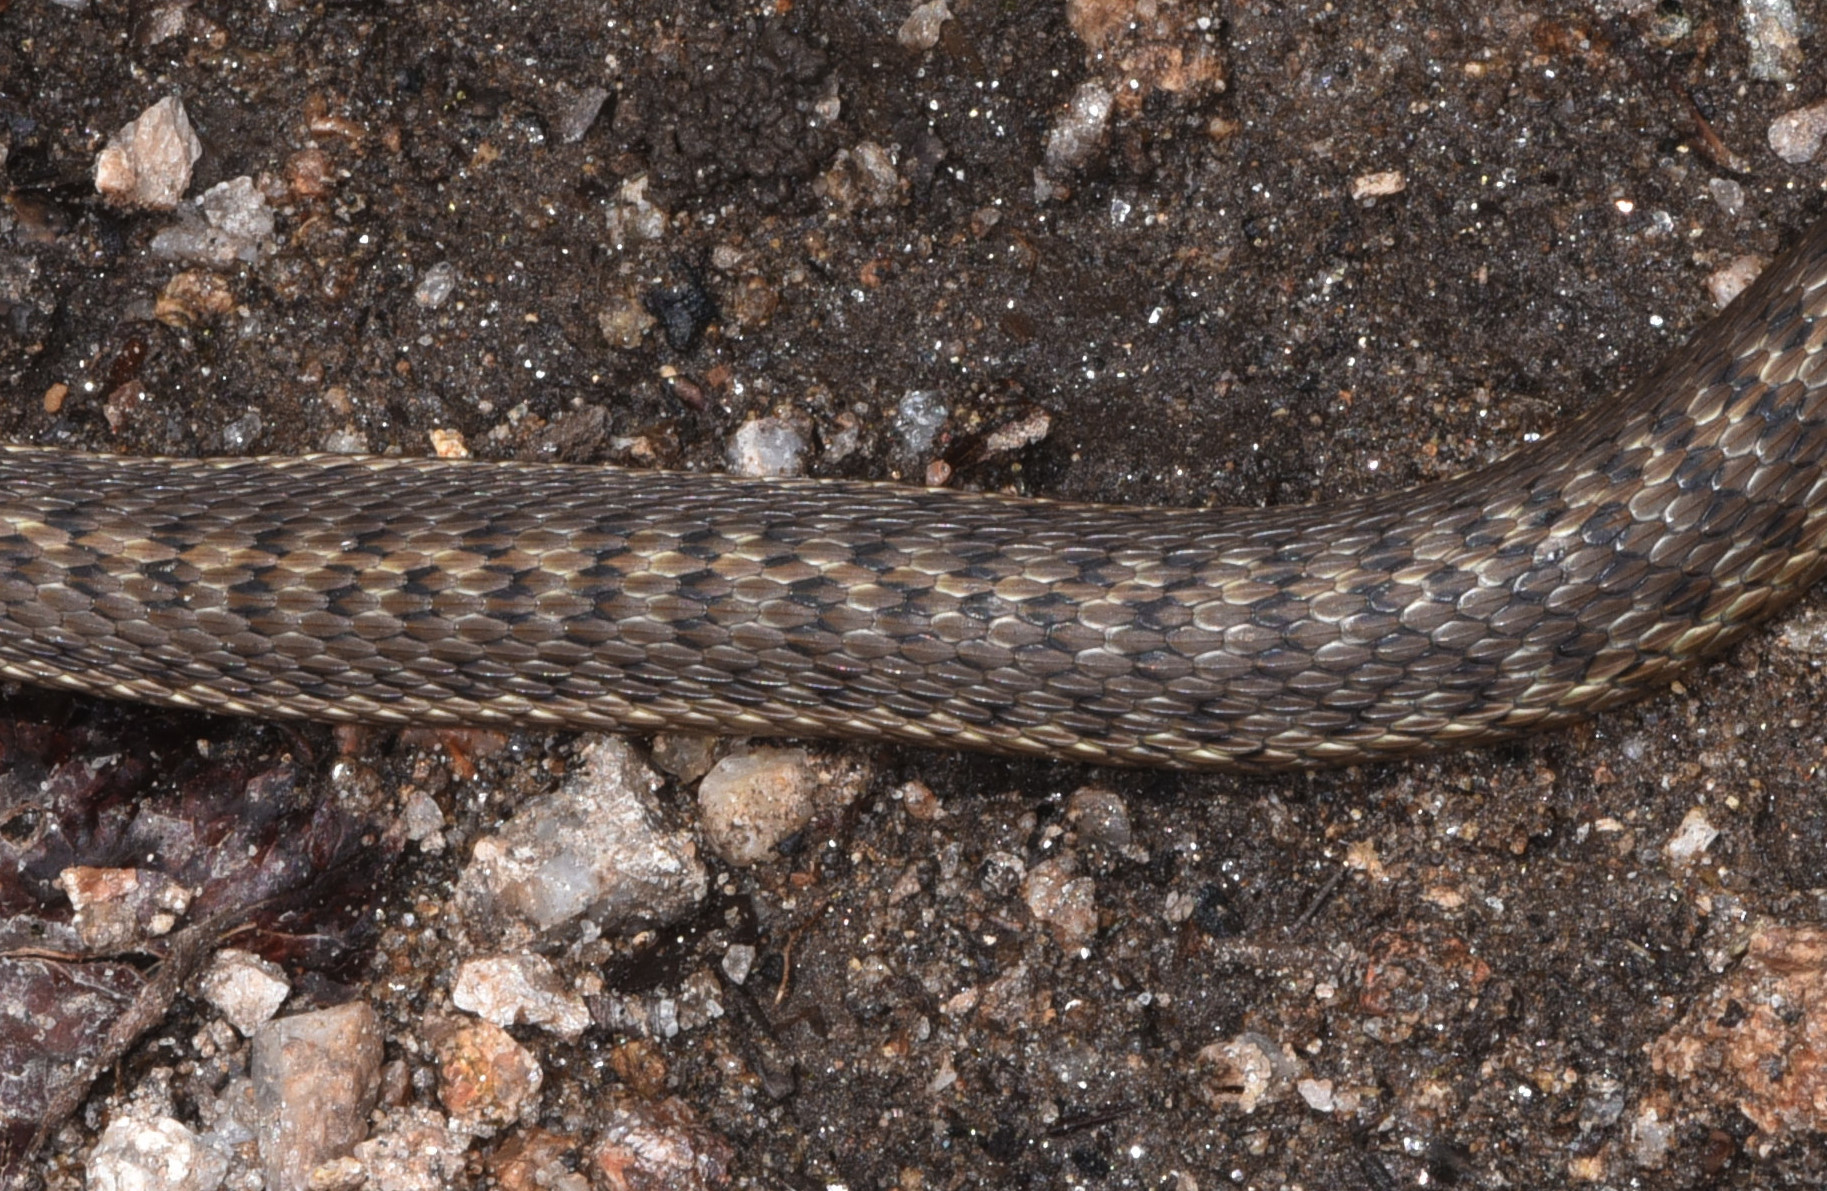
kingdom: Animalia
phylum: Chordata
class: Squamata
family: Colubridae
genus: Thamnophis
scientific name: Thamnophis elegans
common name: Western terrestrial garter snake
